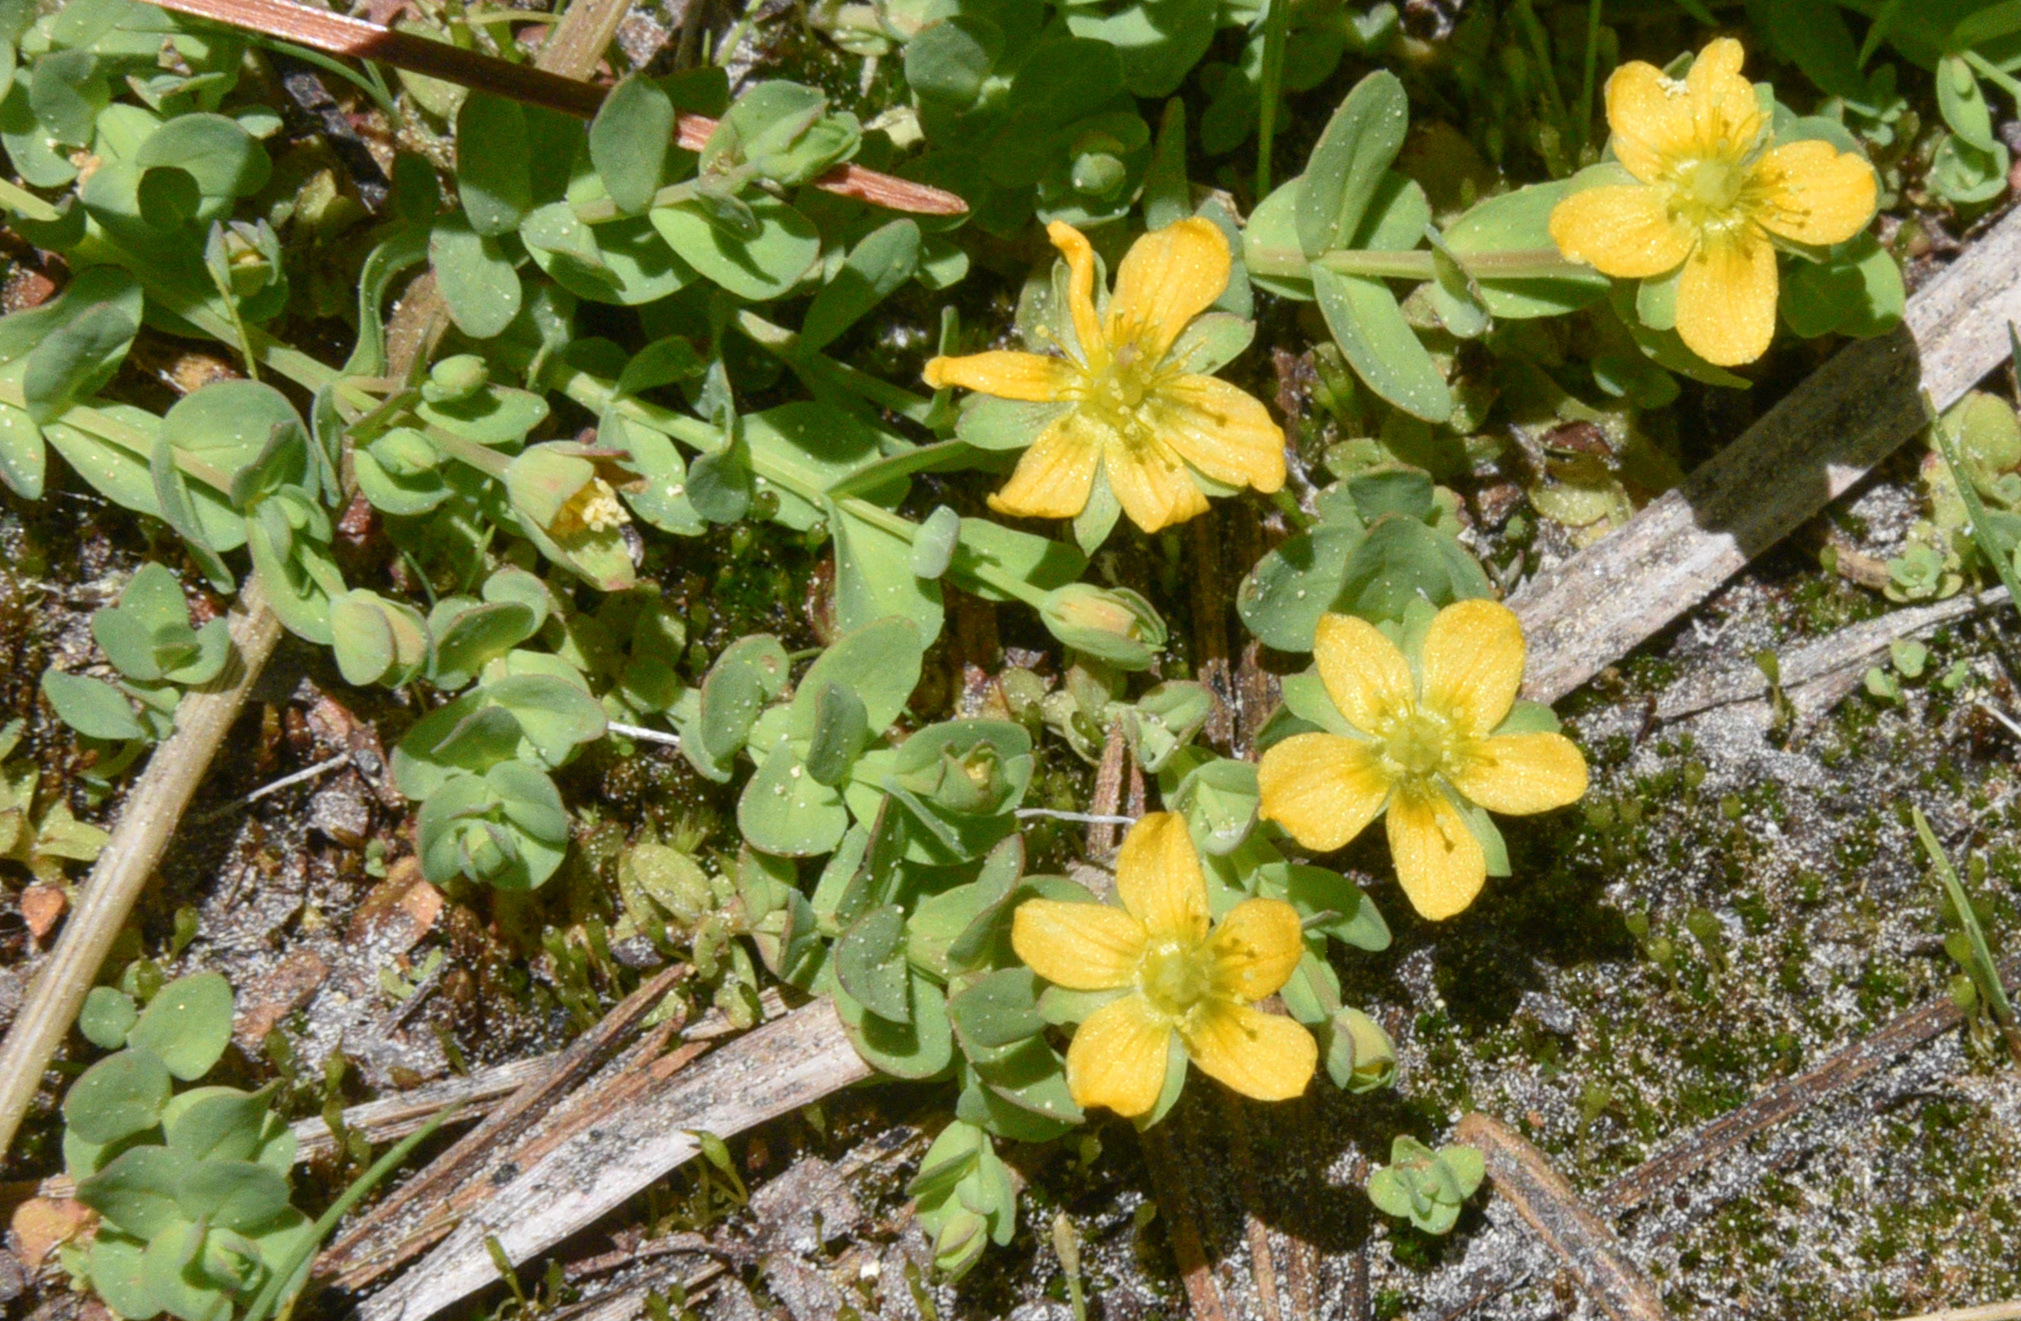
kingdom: Plantae
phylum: Tracheophyta
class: Magnoliopsida
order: Malpighiales
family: Hypericaceae
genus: Hypericum
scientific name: Hypericum anagalloides
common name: Bog st. john's-wort
